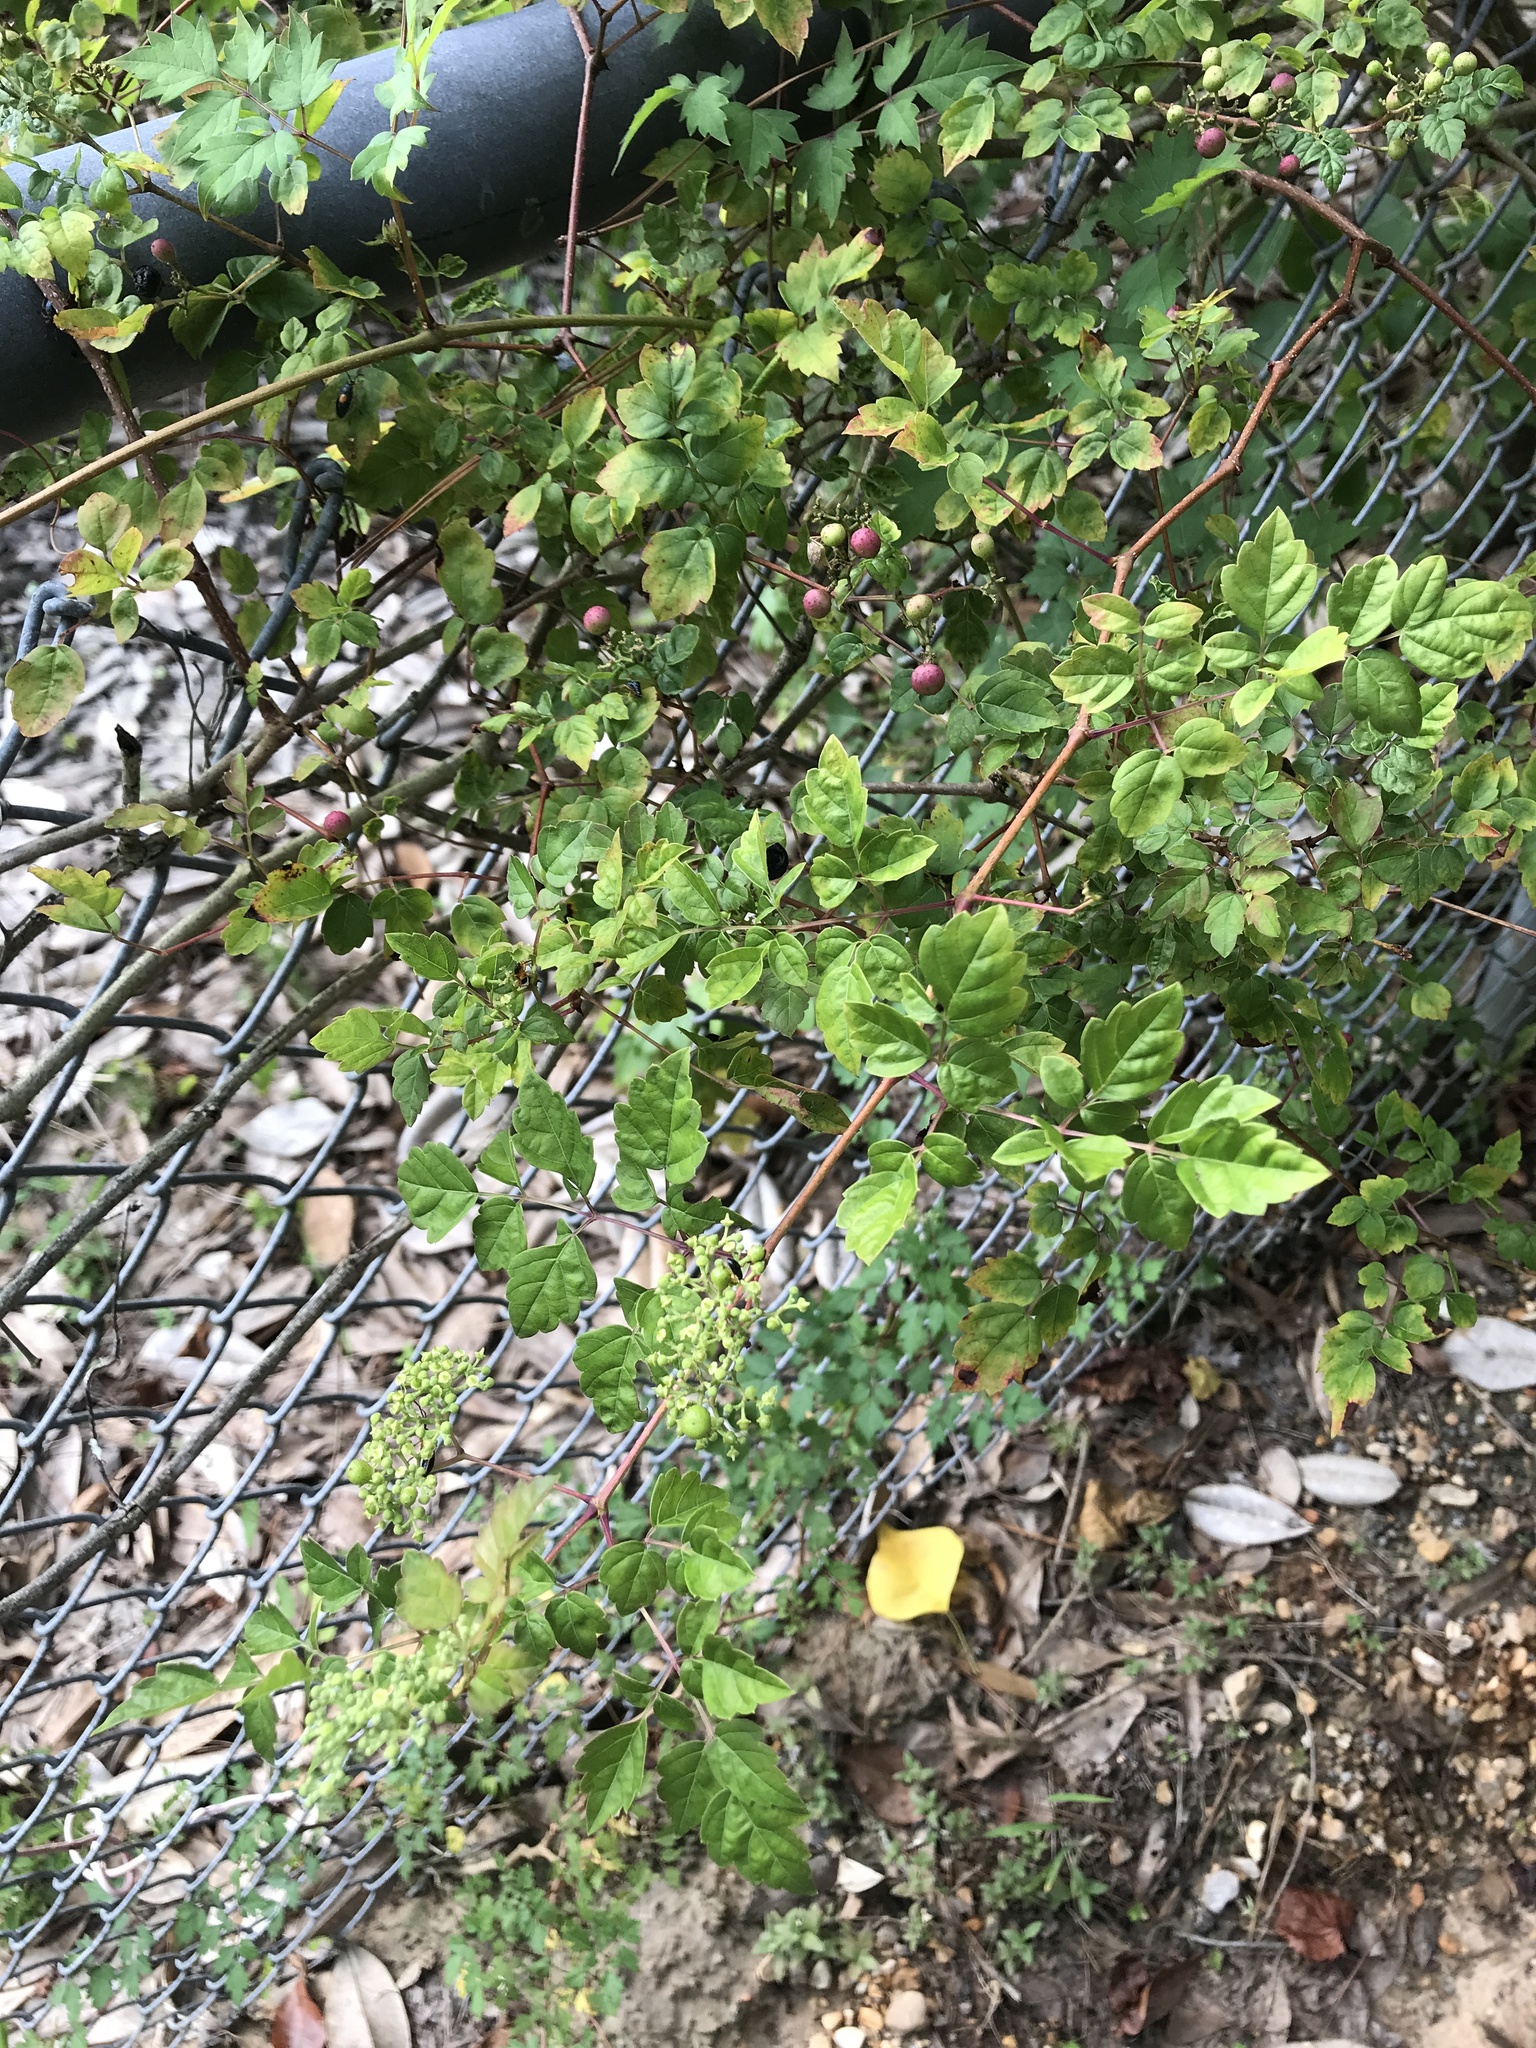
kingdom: Plantae
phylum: Tracheophyta
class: Magnoliopsida
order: Vitales
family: Vitaceae
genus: Nekemias
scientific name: Nekemias arborea
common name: Peppervine
